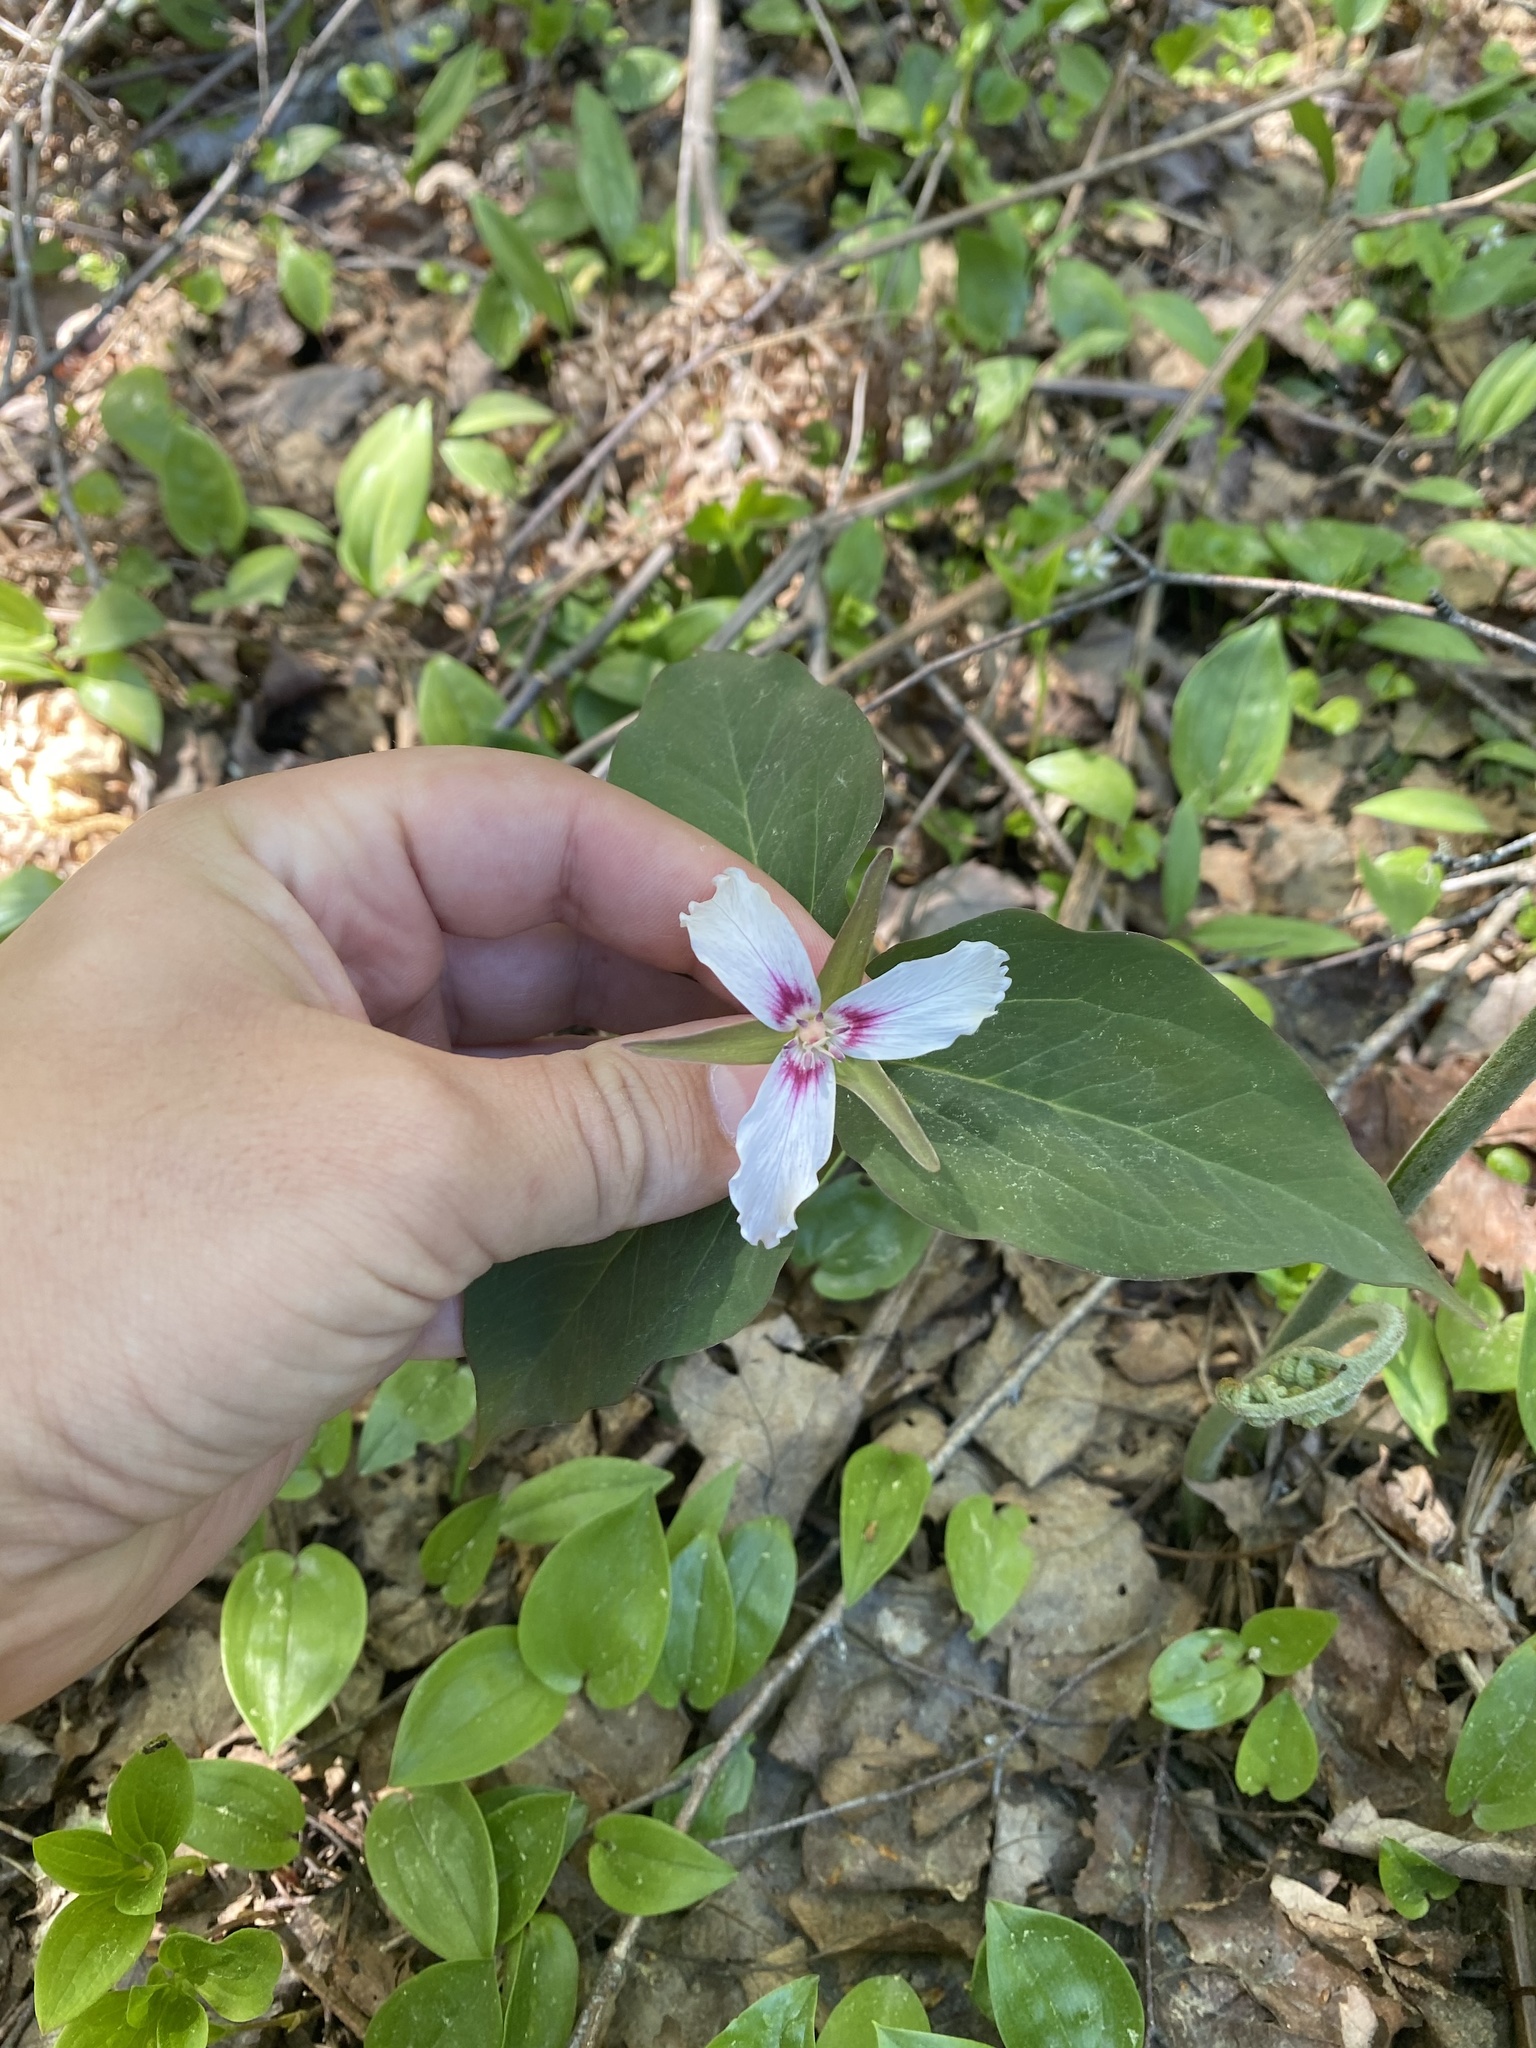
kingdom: Plantae
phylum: Tracheophyta
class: Liliopsida
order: Liliales
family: Melanthiaceae
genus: Trillium
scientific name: Trillium undulatum
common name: Paint trillium
